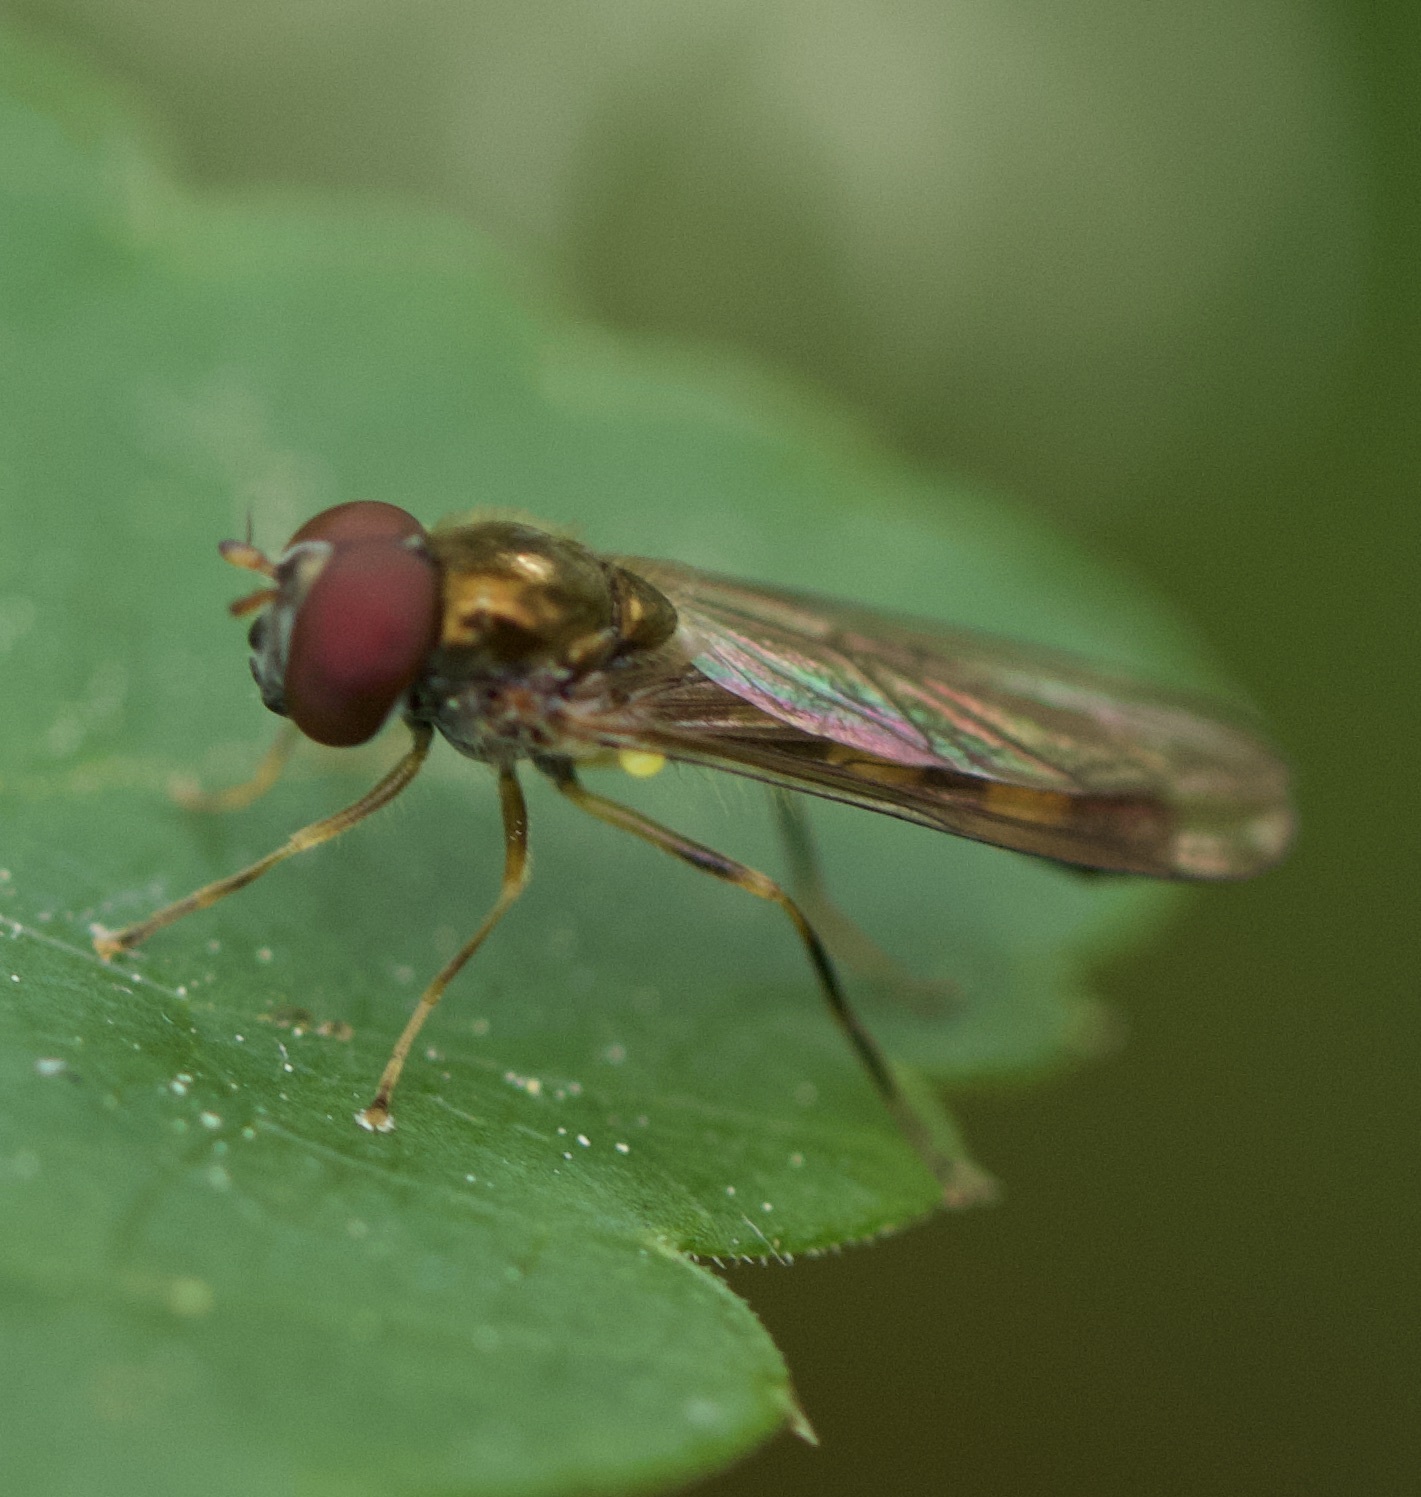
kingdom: Animalia
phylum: Arthropoda
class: Insecta
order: Diptera
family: Syrphidae
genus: Melanostoma
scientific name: Melanostoma scalare
